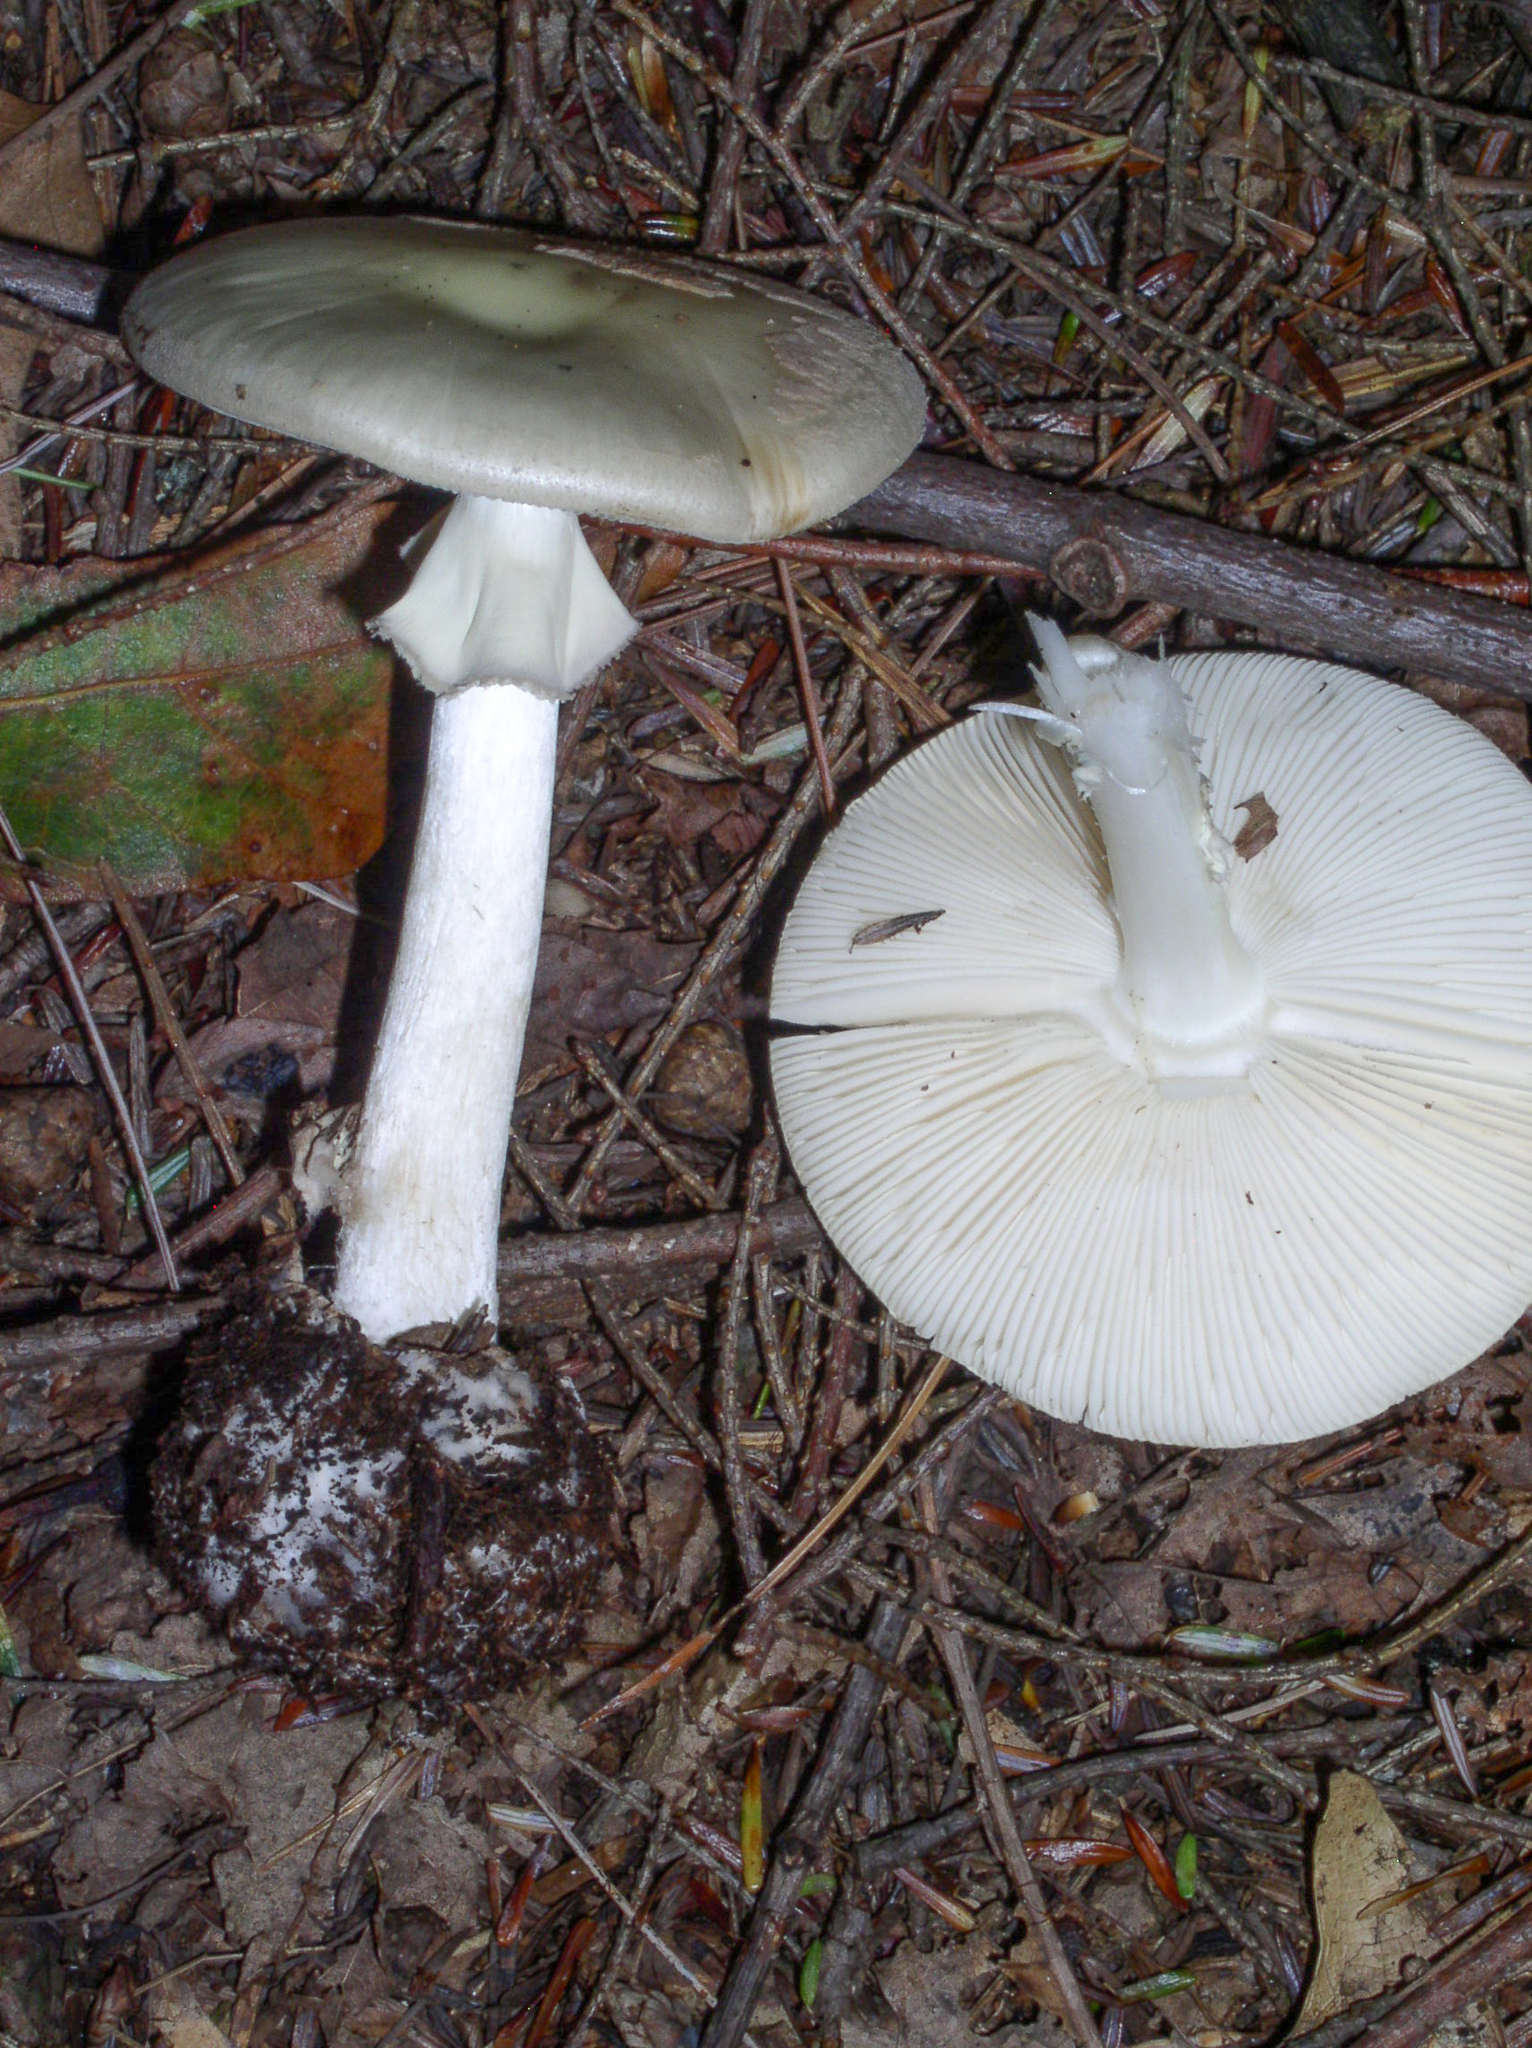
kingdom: Fungi
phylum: Basidiomycota
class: Agaricomycetes
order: Agaricales
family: Amanitaceae
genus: Amanita
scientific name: Amanita citrina
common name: False death-cap
